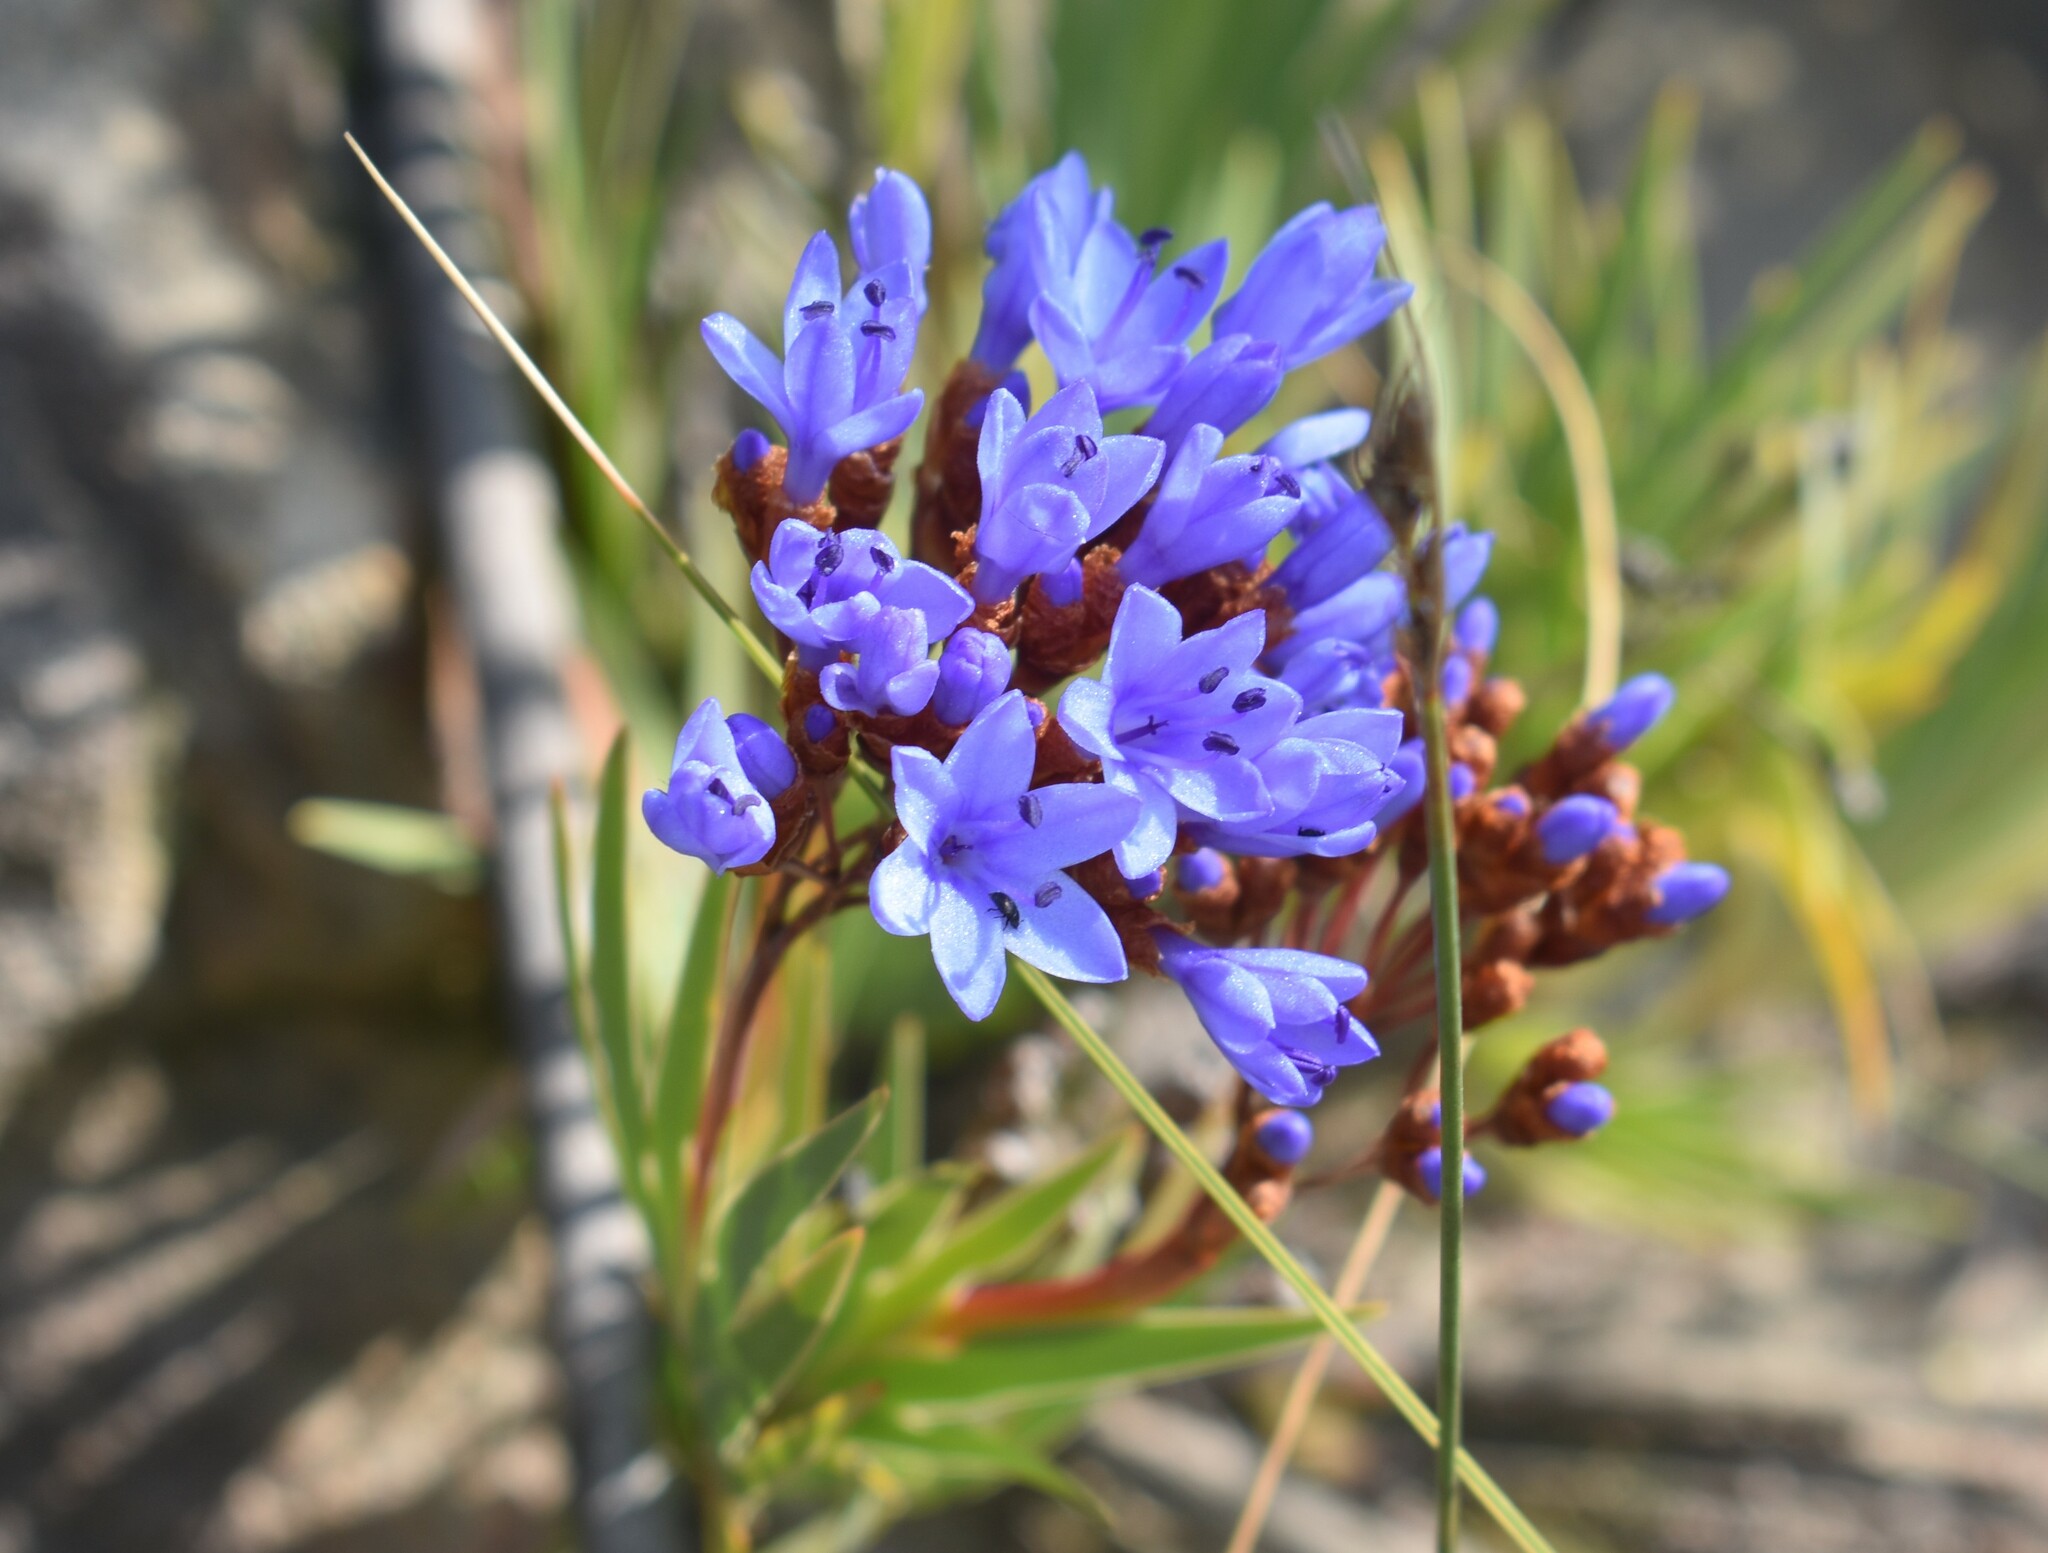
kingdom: Plantae
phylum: Tracheophyta
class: Liliopsida
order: Asparagales
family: Iridaceae
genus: Nivenia
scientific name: Nivenia binata
